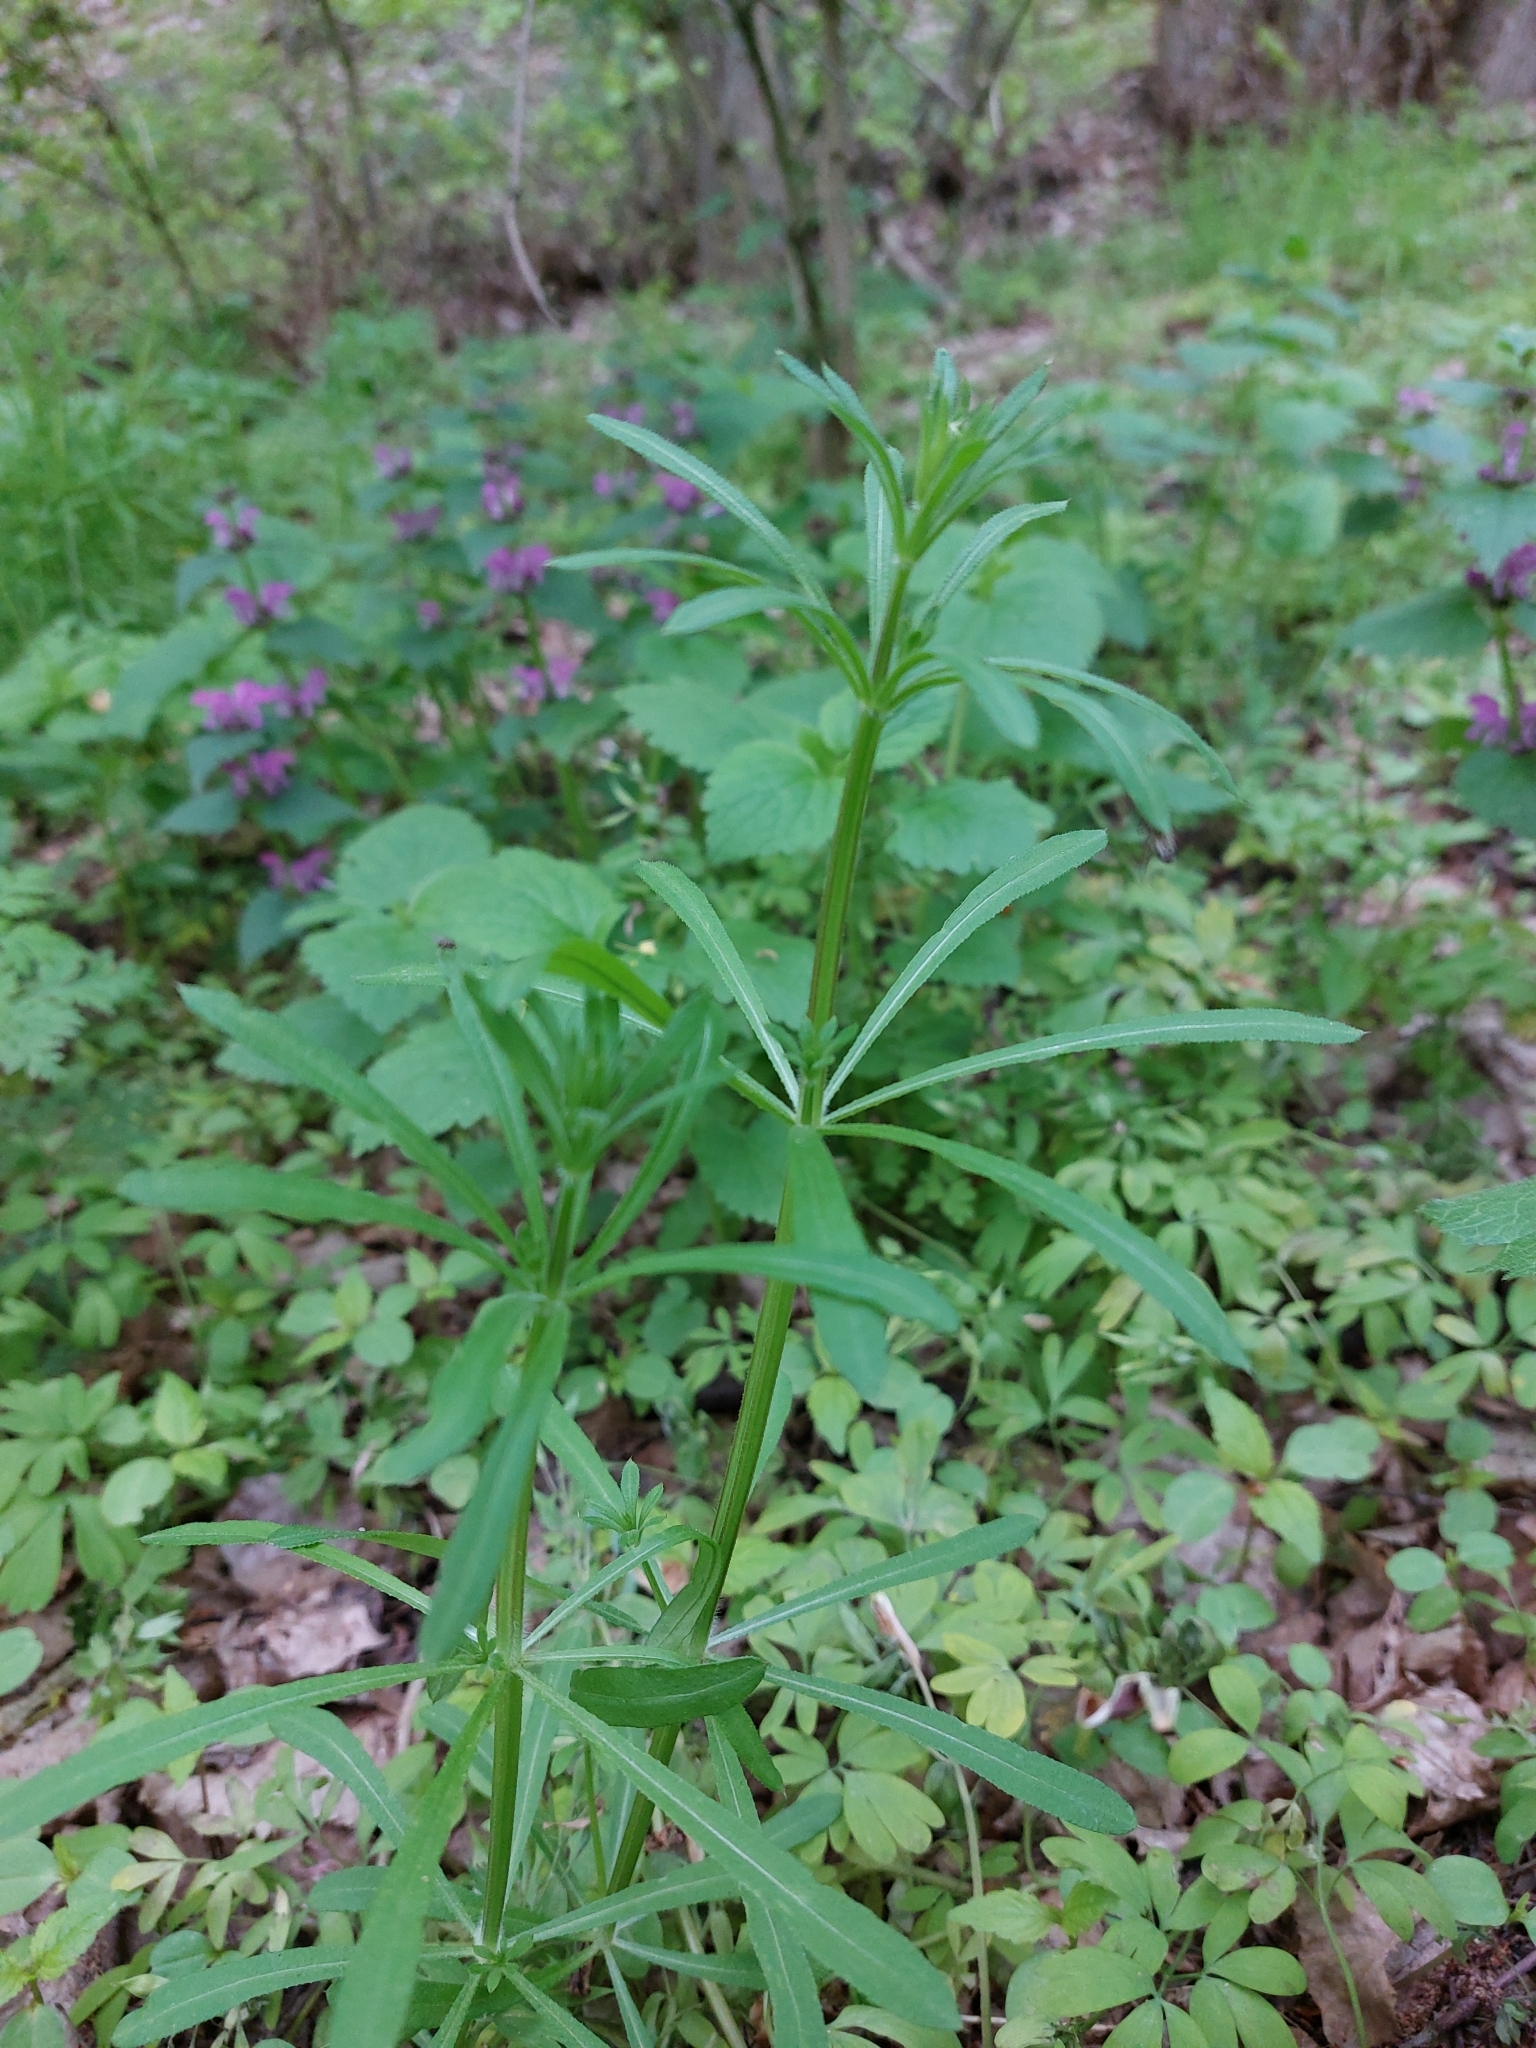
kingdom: Plantae
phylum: Tracheophyta
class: Magnoliopsida
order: Gentianales
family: Rubiaceae
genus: Galium
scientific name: Galium aparine
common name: Cleavers
